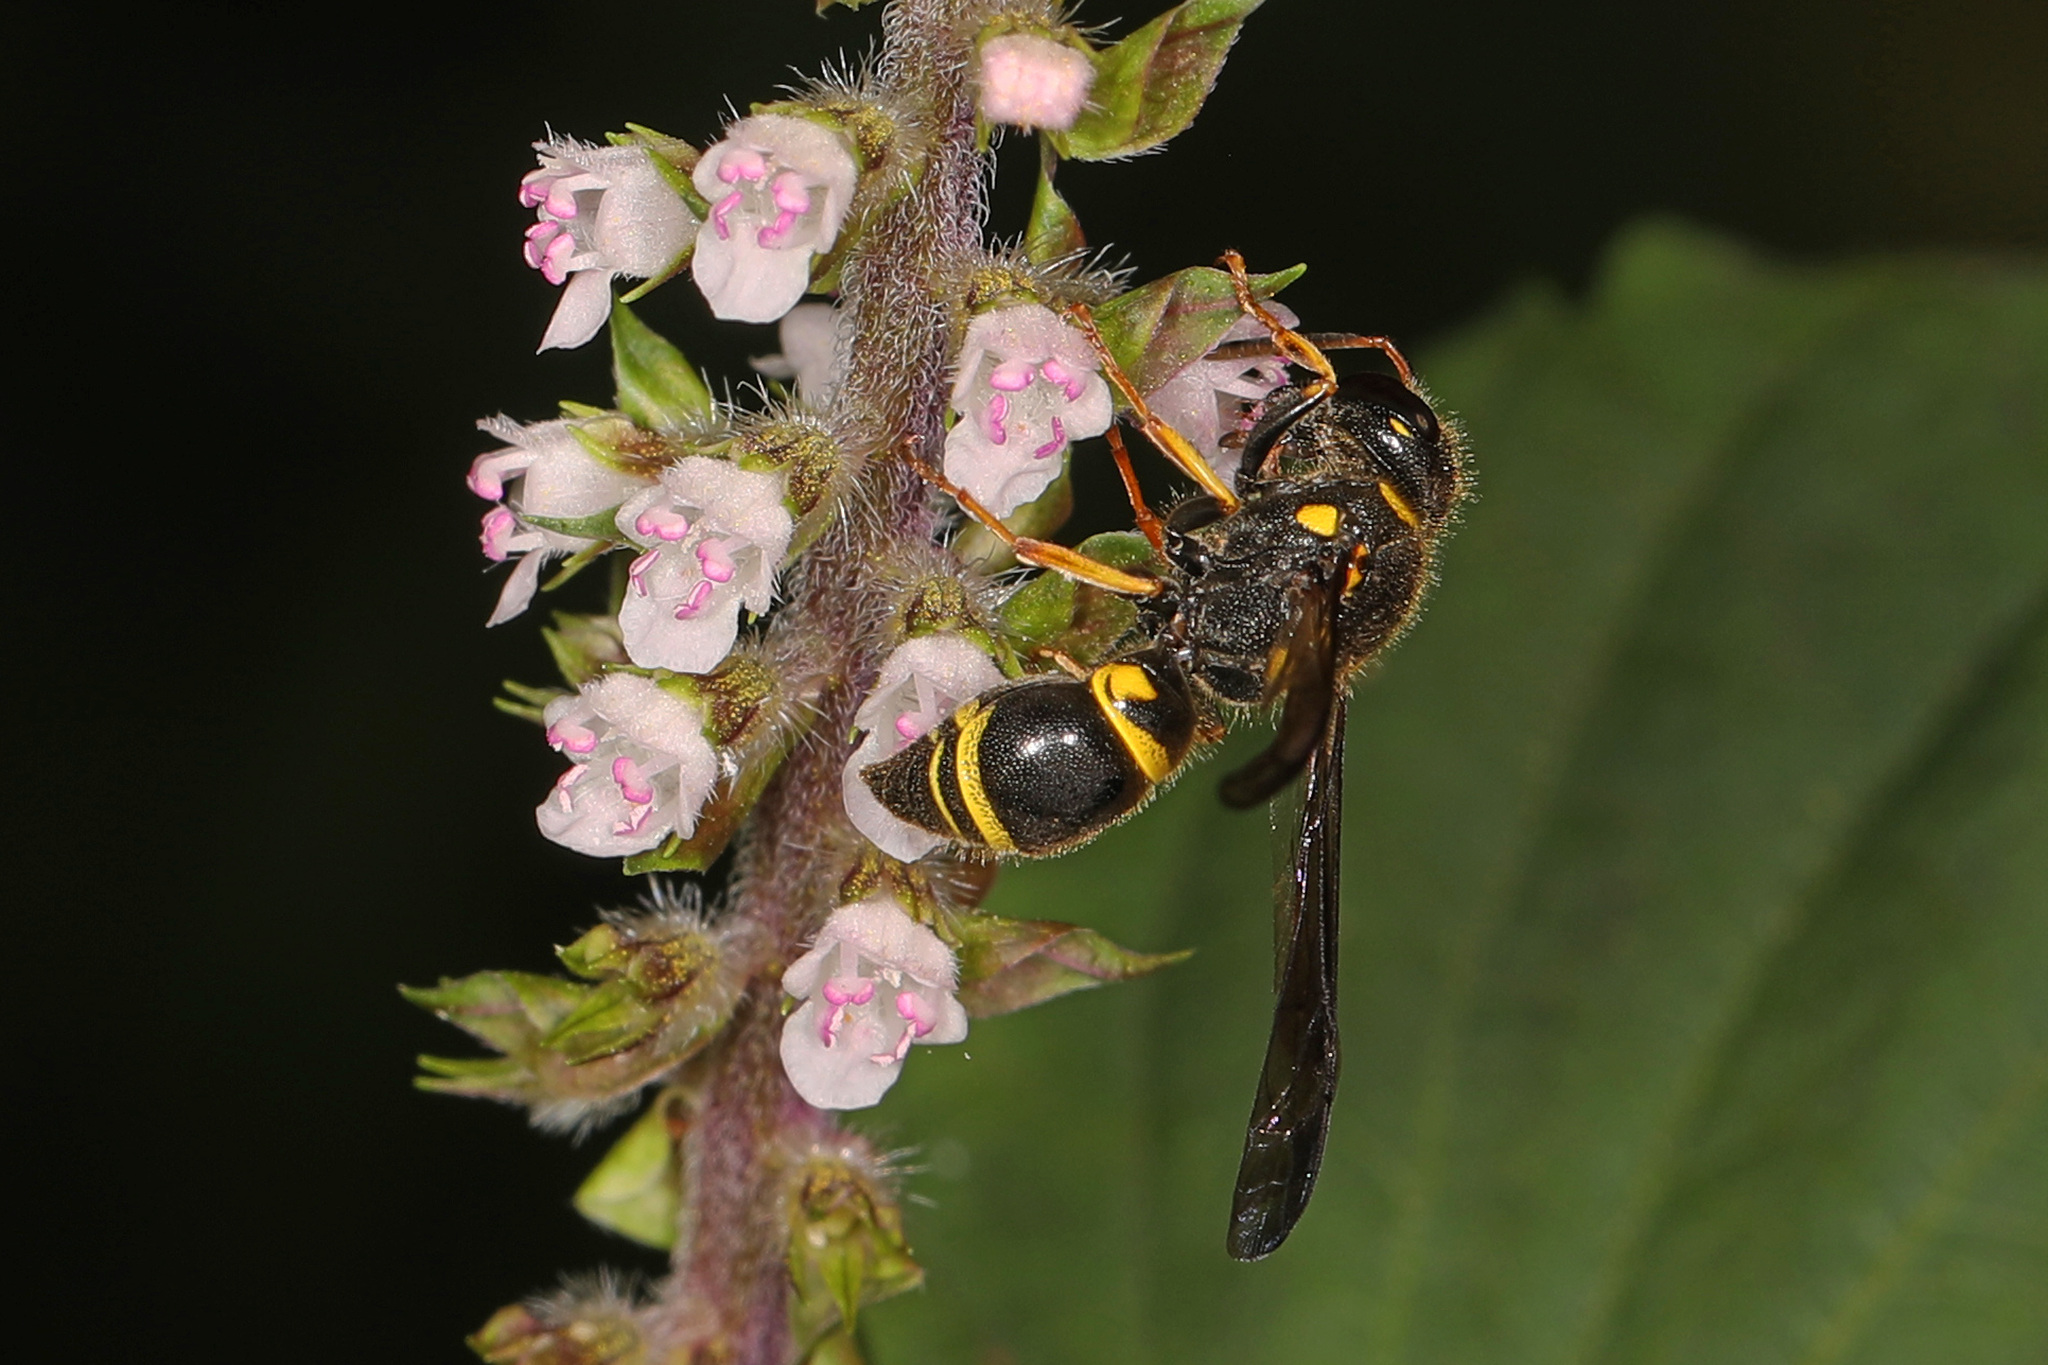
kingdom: Animalia
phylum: Arthropoda
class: Insecta
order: Hymenoptera
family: Vespidae
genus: Ancistrocerus
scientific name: Ancistrocerus campestris
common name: Smiling mason wasp
